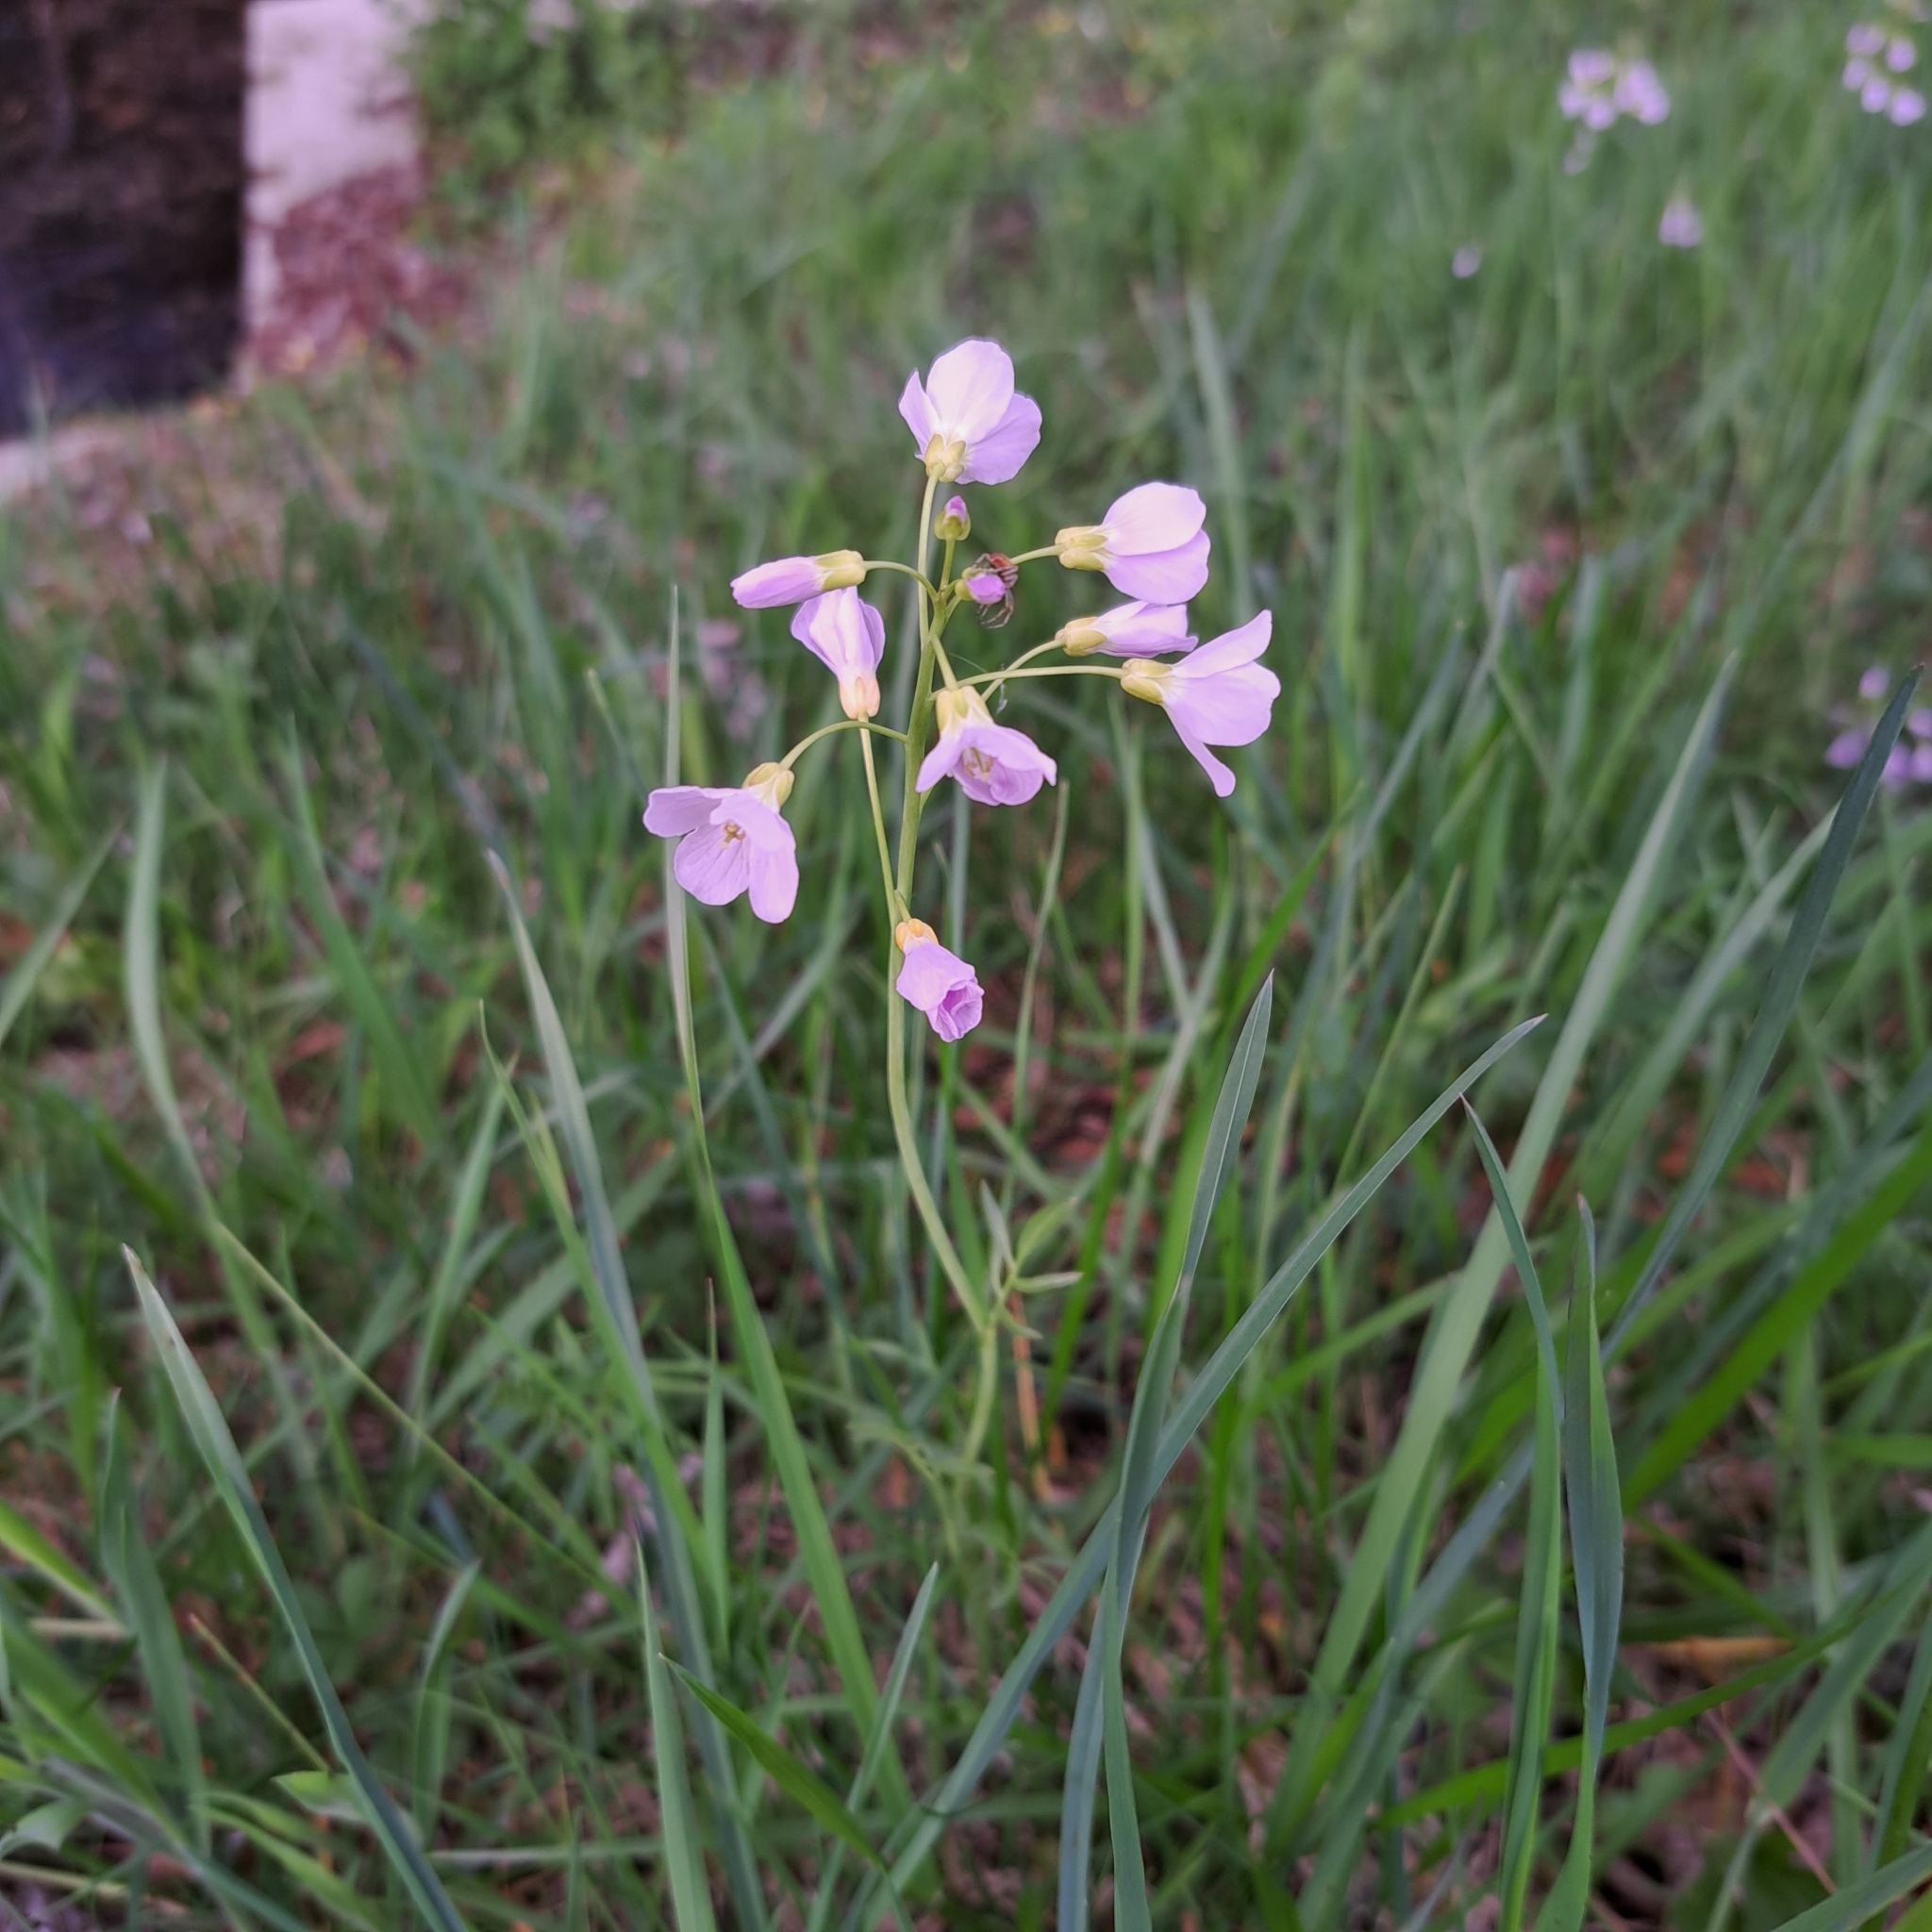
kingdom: Plantae
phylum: Tracheophyta
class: Magnoliopsida
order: Brassicales
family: Brassicaceae
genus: Cardamine
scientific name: Cardamine pratensis
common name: Cuckoo flower
